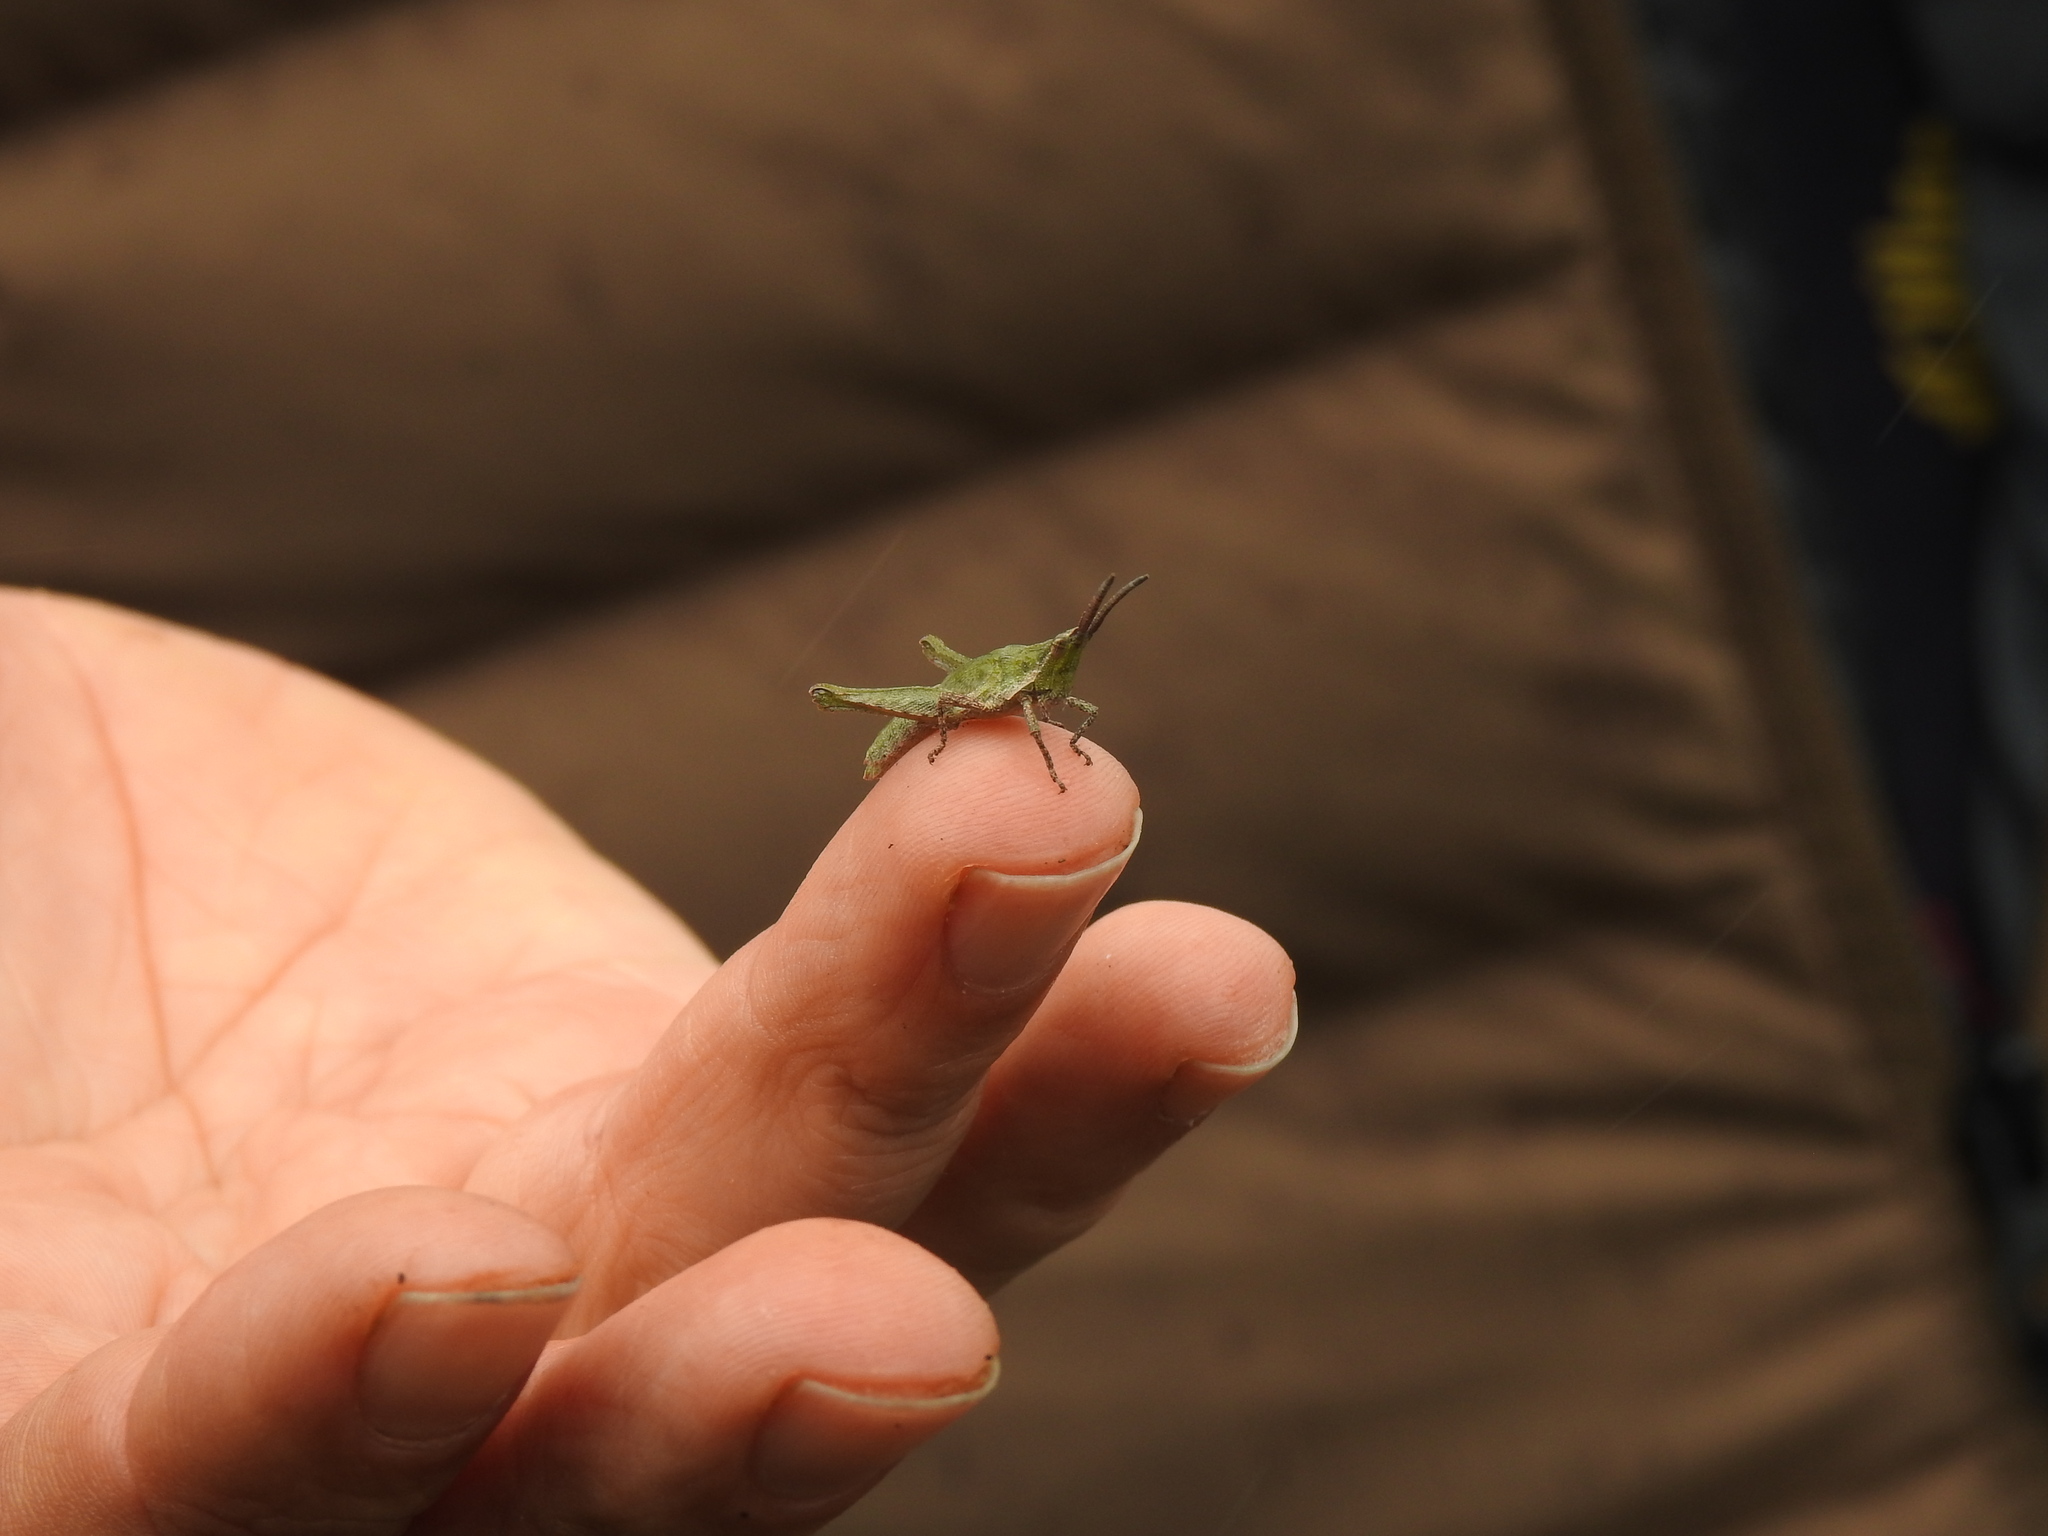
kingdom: Animalia
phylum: Arthropoda
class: Insecta
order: Orthoptera
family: Pyrgomorphidae
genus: Pyrgomorpha
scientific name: Pyrgomorpha conica
